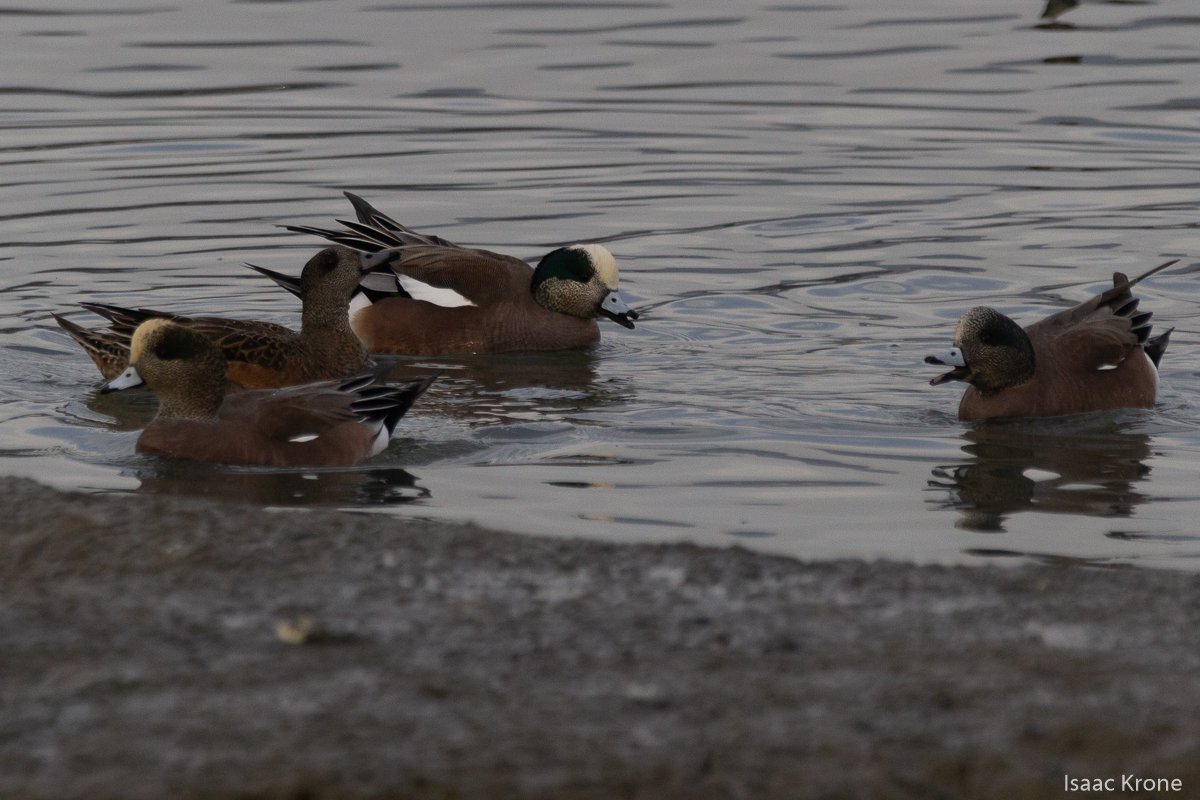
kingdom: Animalia
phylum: Chordata
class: Aves
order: Anseriformes
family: Anatidae
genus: Mareca
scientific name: Mareca americana
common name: American wigeon
